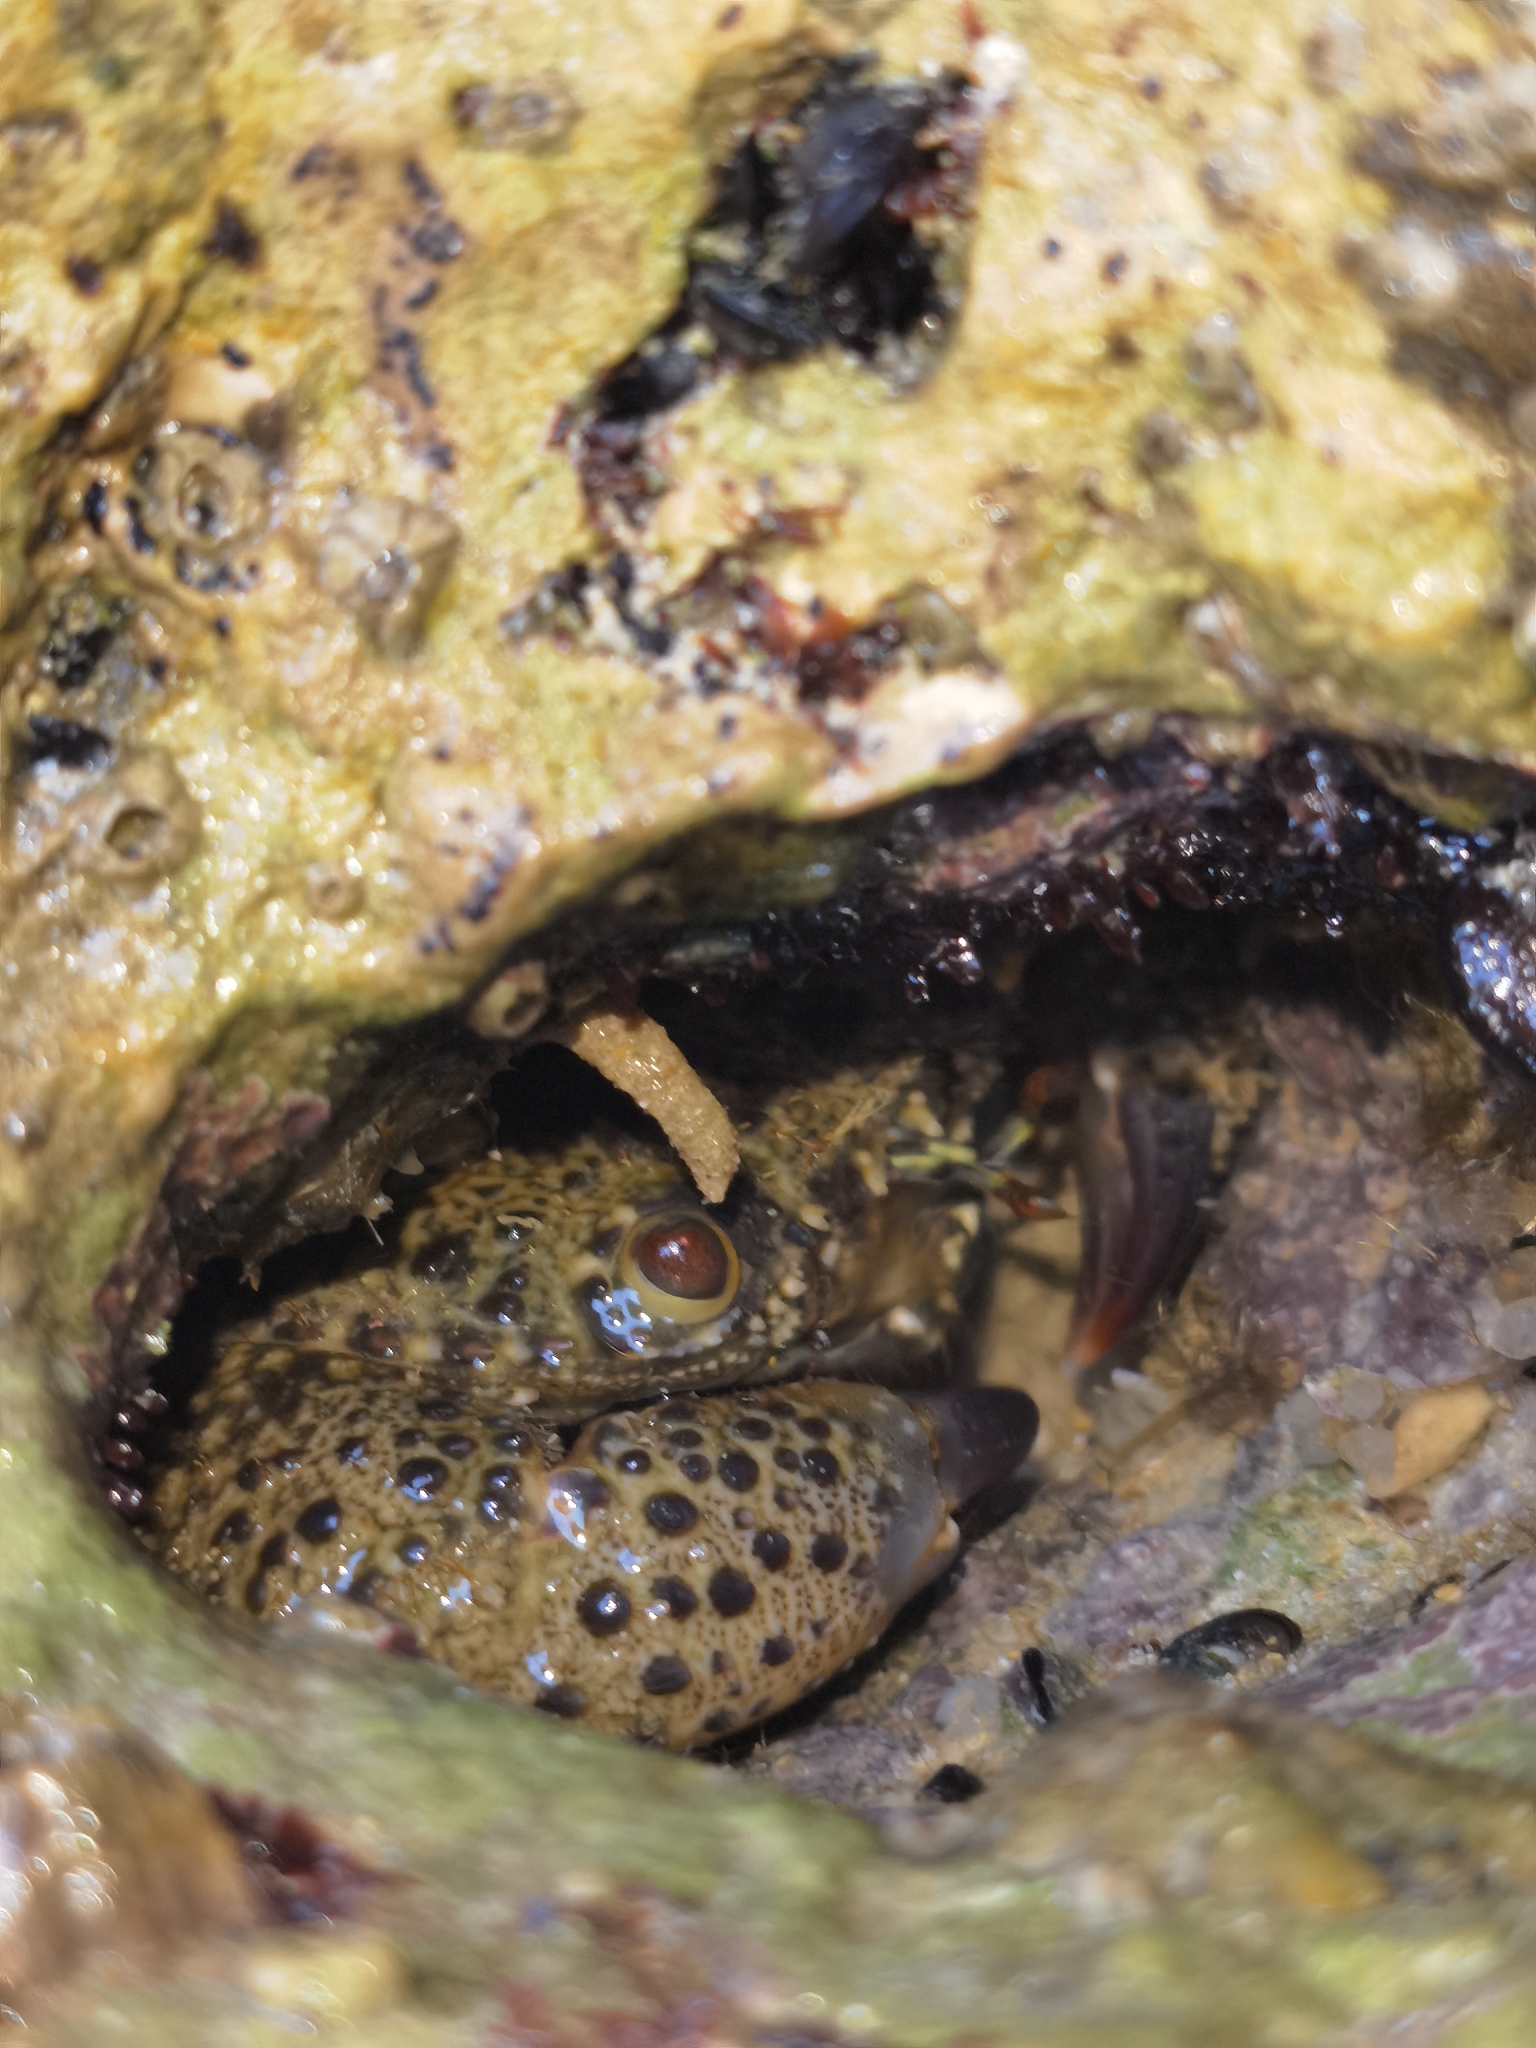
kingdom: Animalia
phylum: Arthropoda
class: Malacostraca
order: Decapoda
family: Eriphiidae
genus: Eriphia
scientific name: Eriphia verrucosa
